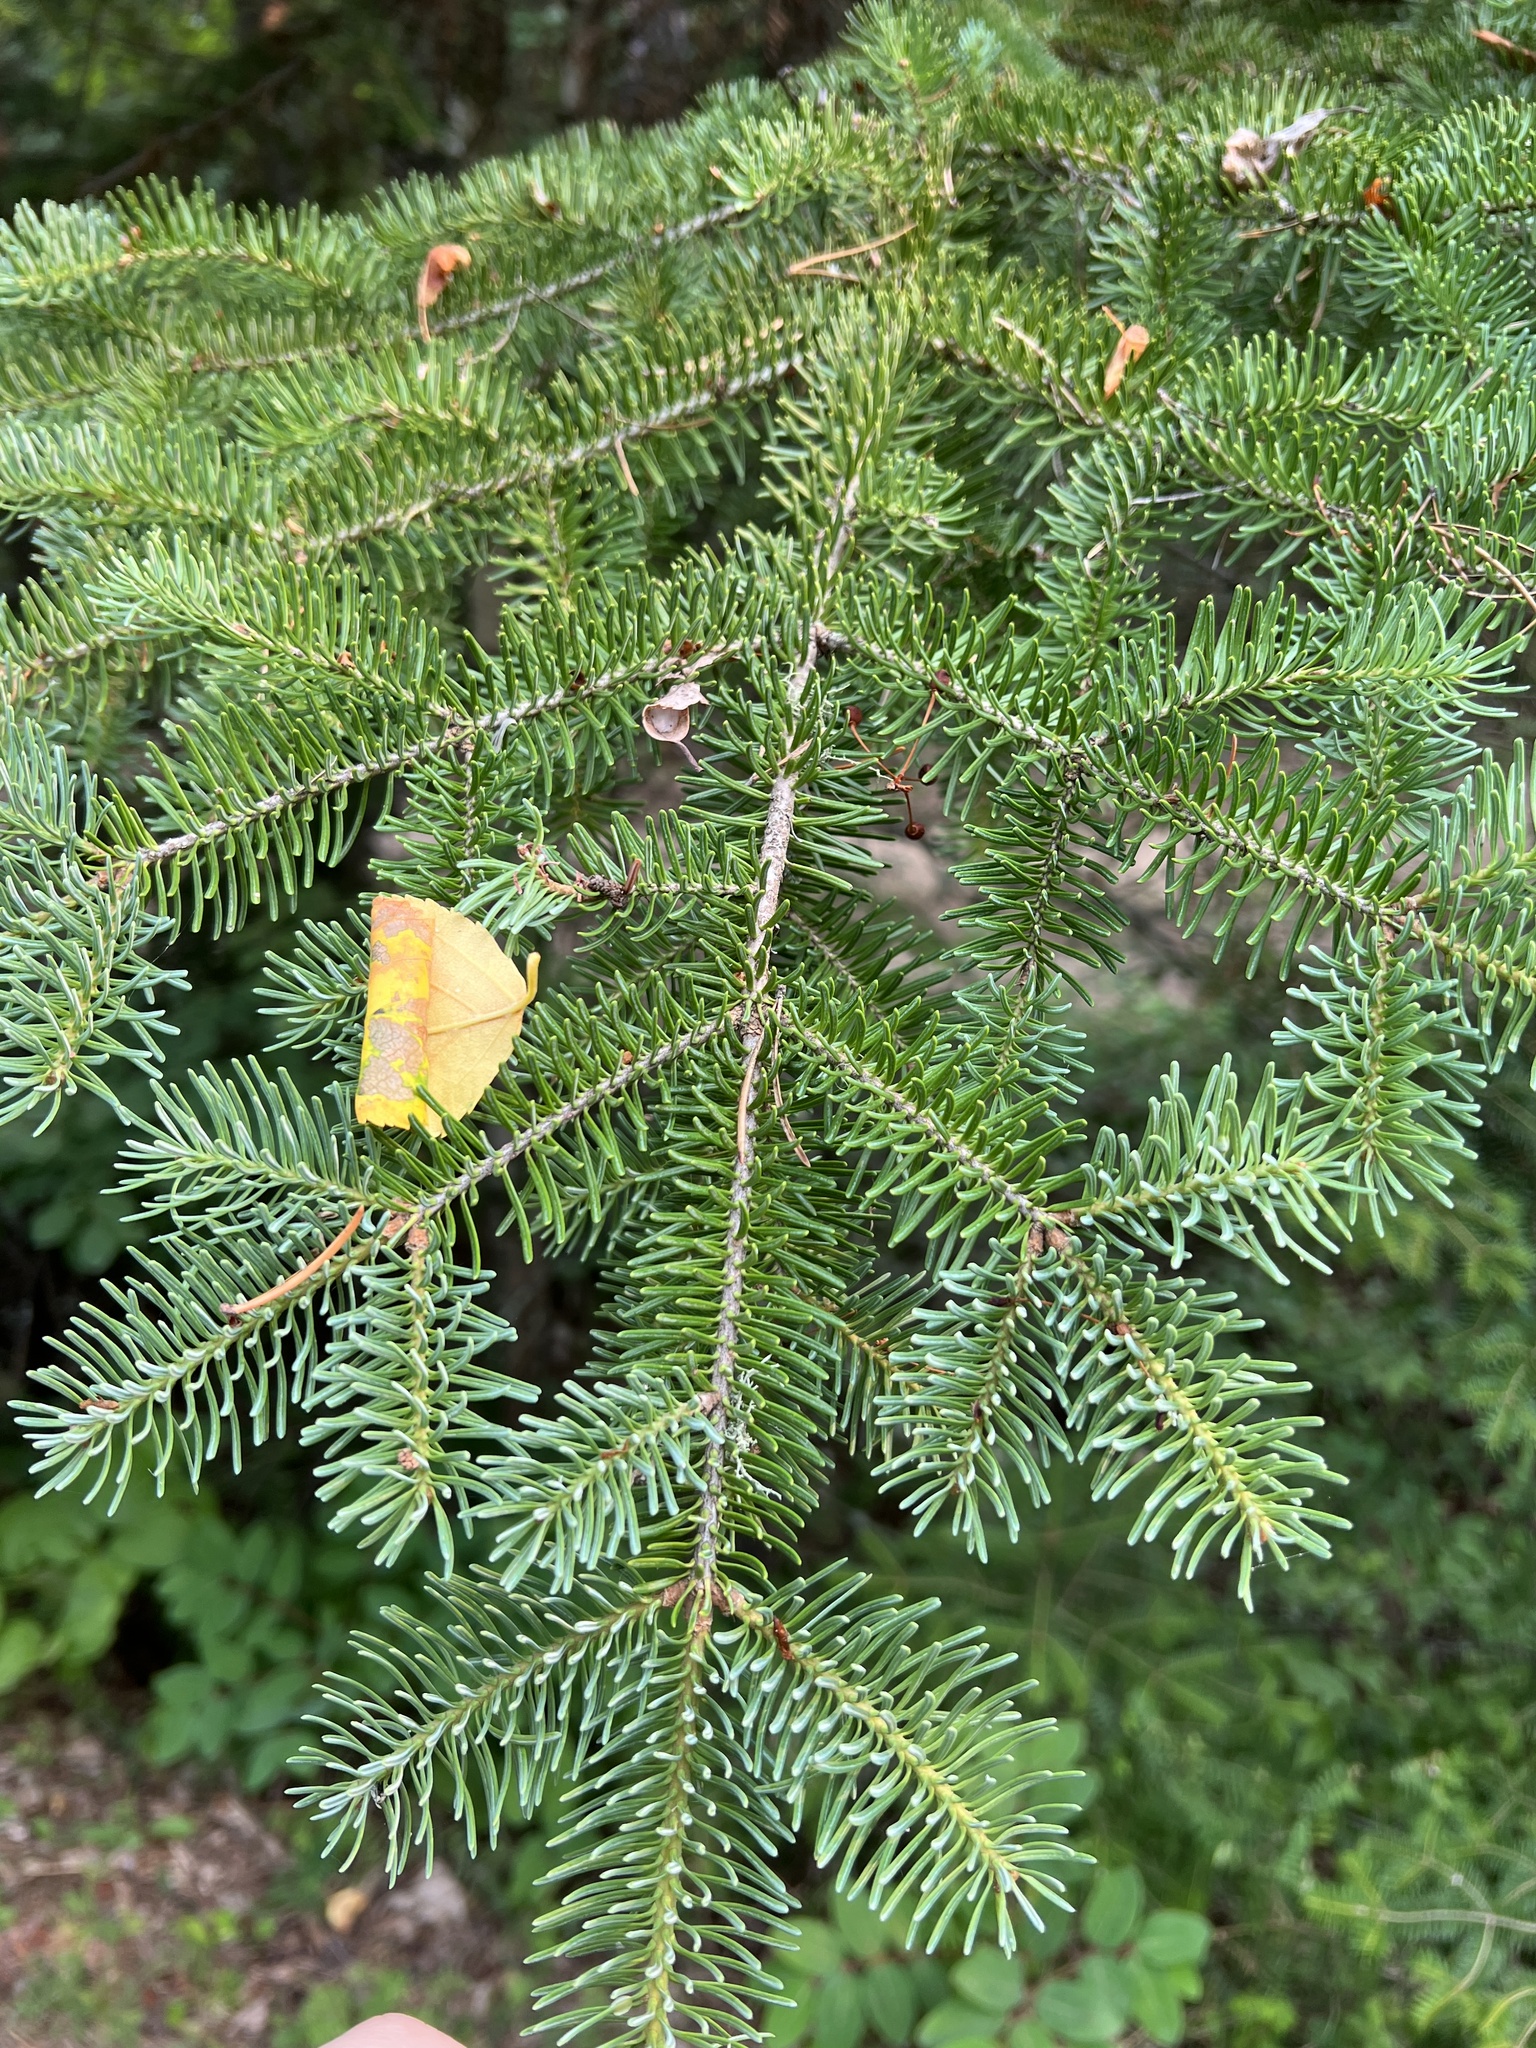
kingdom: Plantae
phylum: Tracheophyta
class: Pinopsida
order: Pinales
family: Pinaceae
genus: Abies
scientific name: Abies balsamea
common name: Balsam fir
